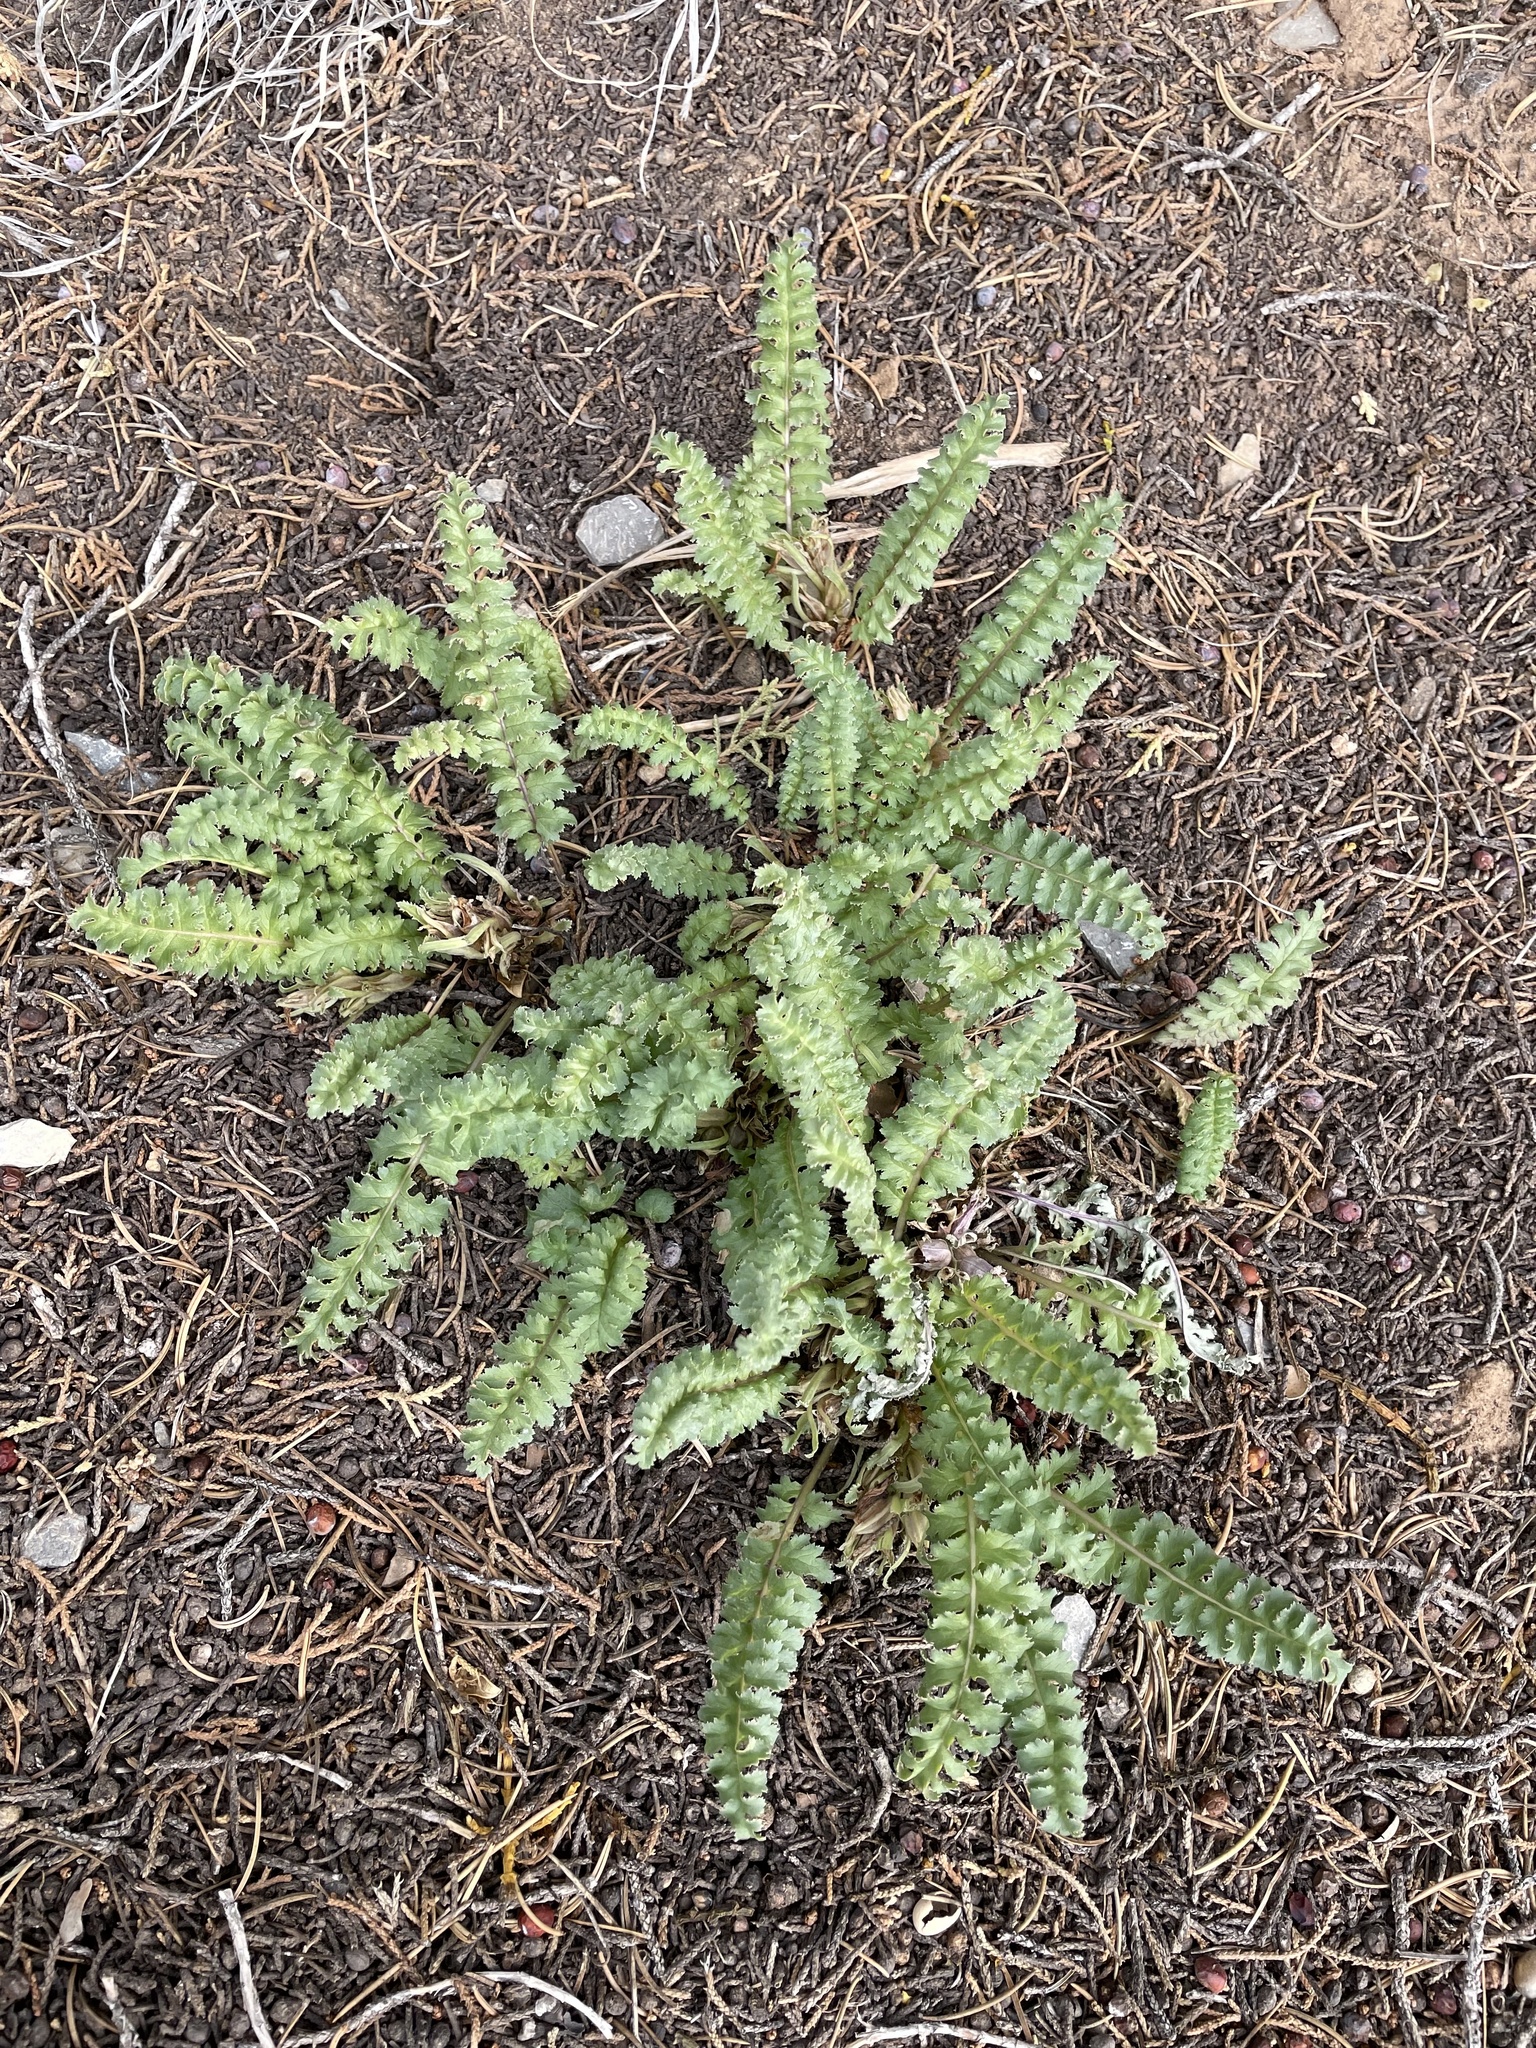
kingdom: Plantae
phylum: Tracheophyta
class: Magnoliopsida
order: Lamiales
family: Orobanchaceae
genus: Pedicularis
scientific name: Pedicularis centranthera
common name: Dwarf lousewort
